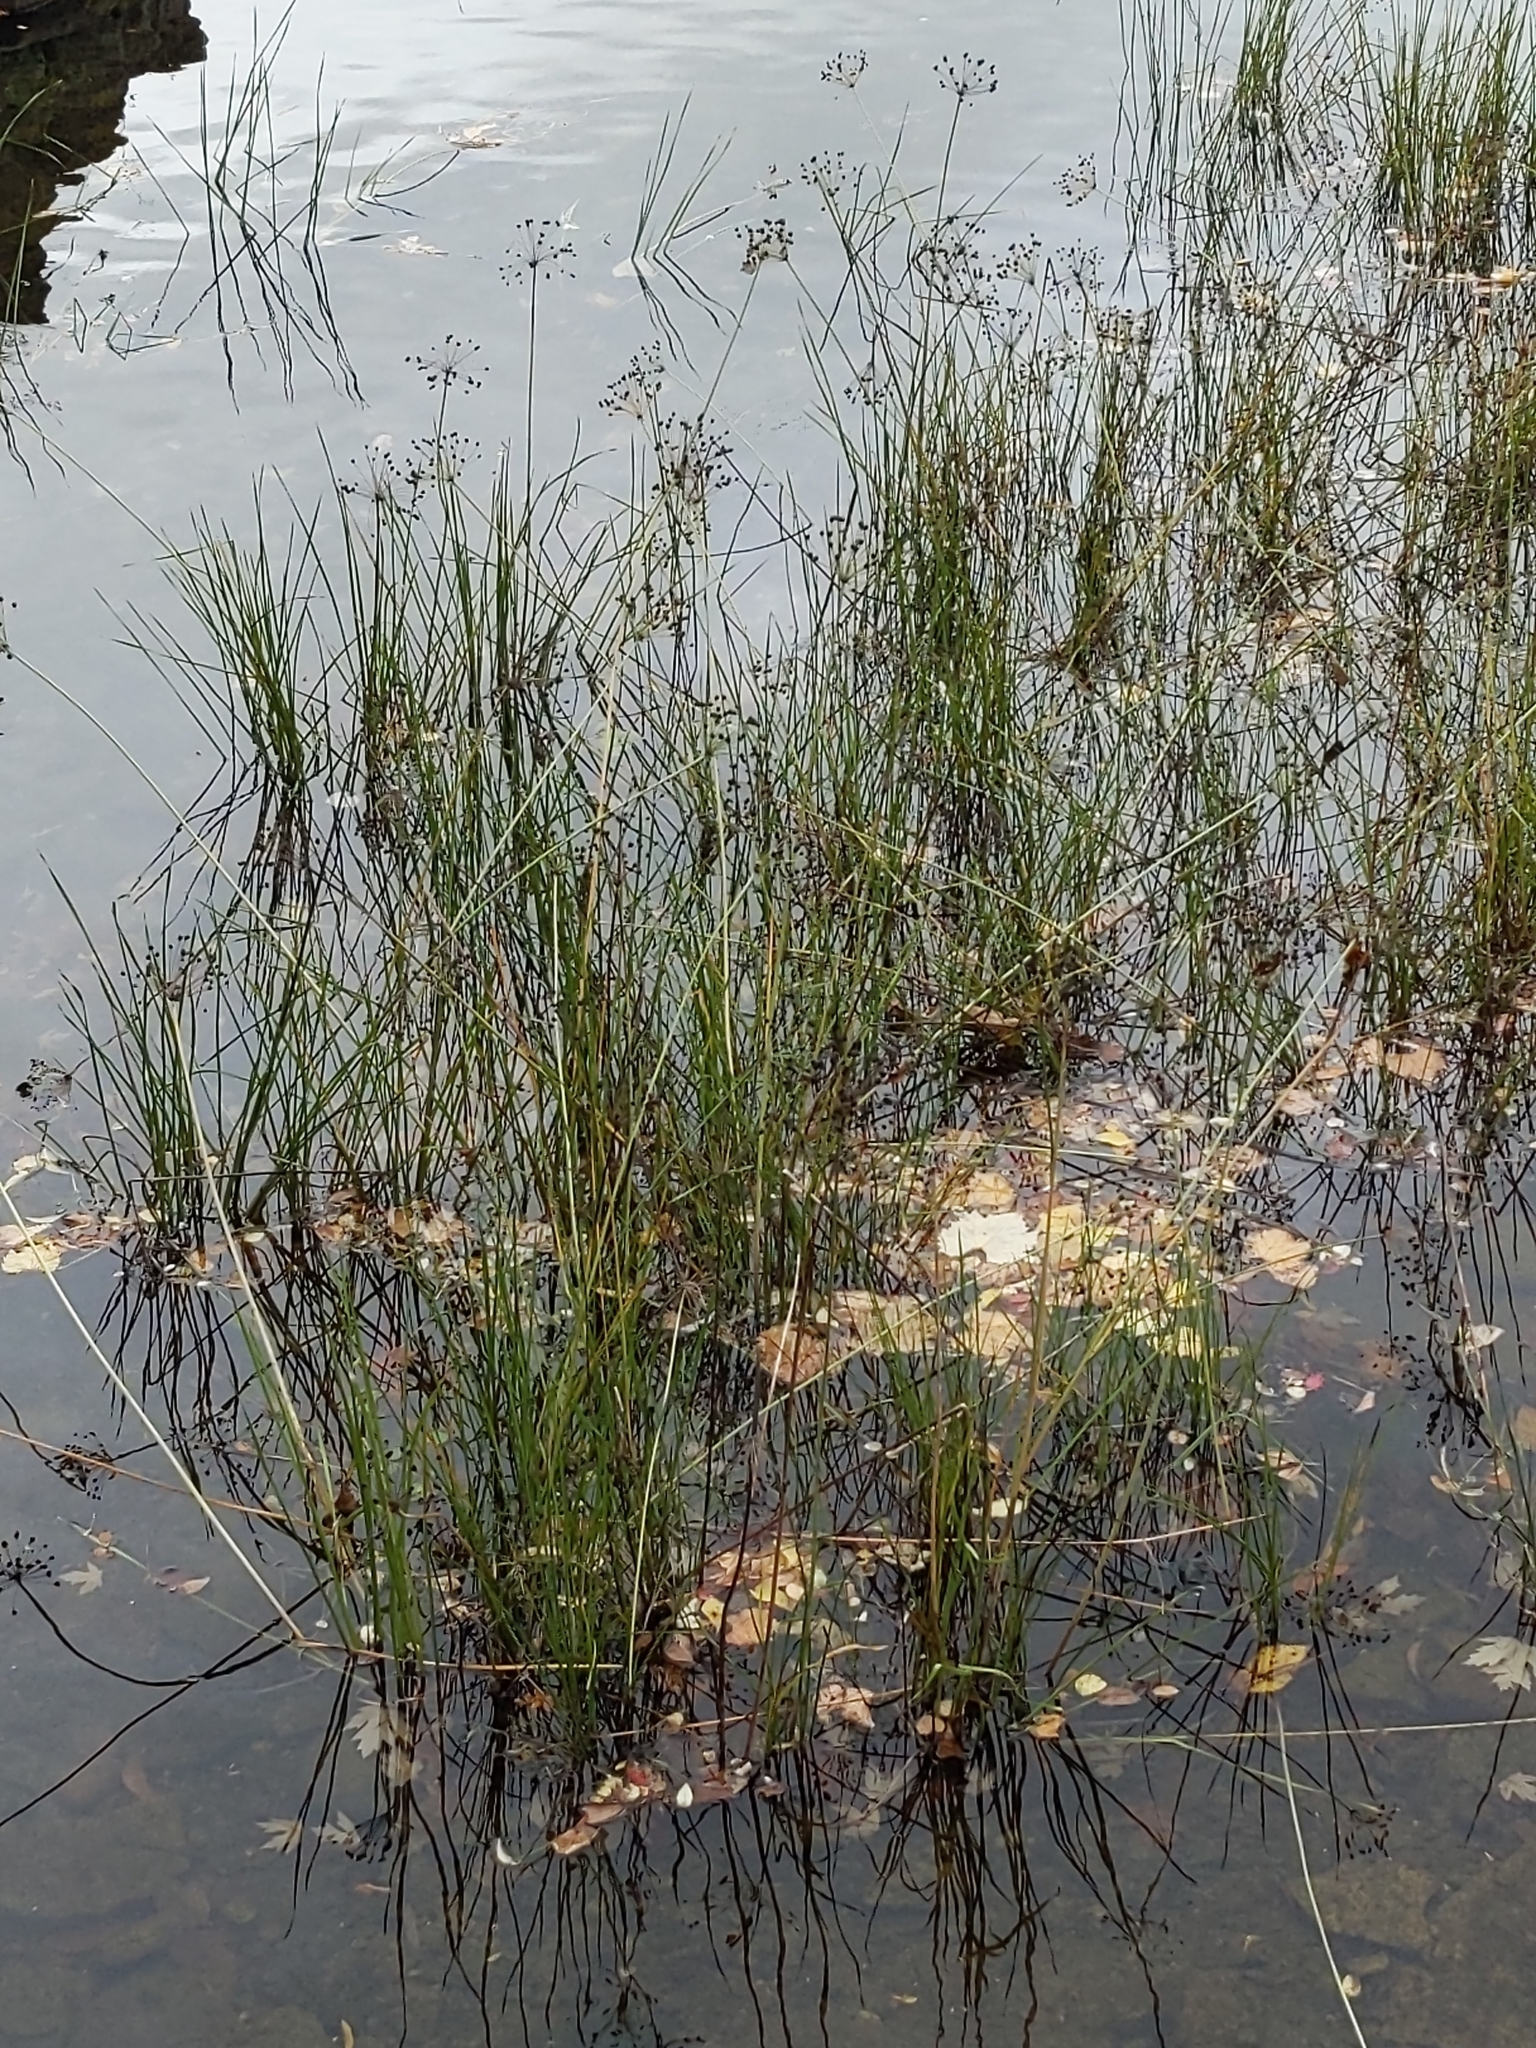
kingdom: Plantae
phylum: Tracheophyta
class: Liliopsida
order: Alismatales
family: Butomaceae
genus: Butomus
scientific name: Butomus umbellatus
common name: Flowering-rush
